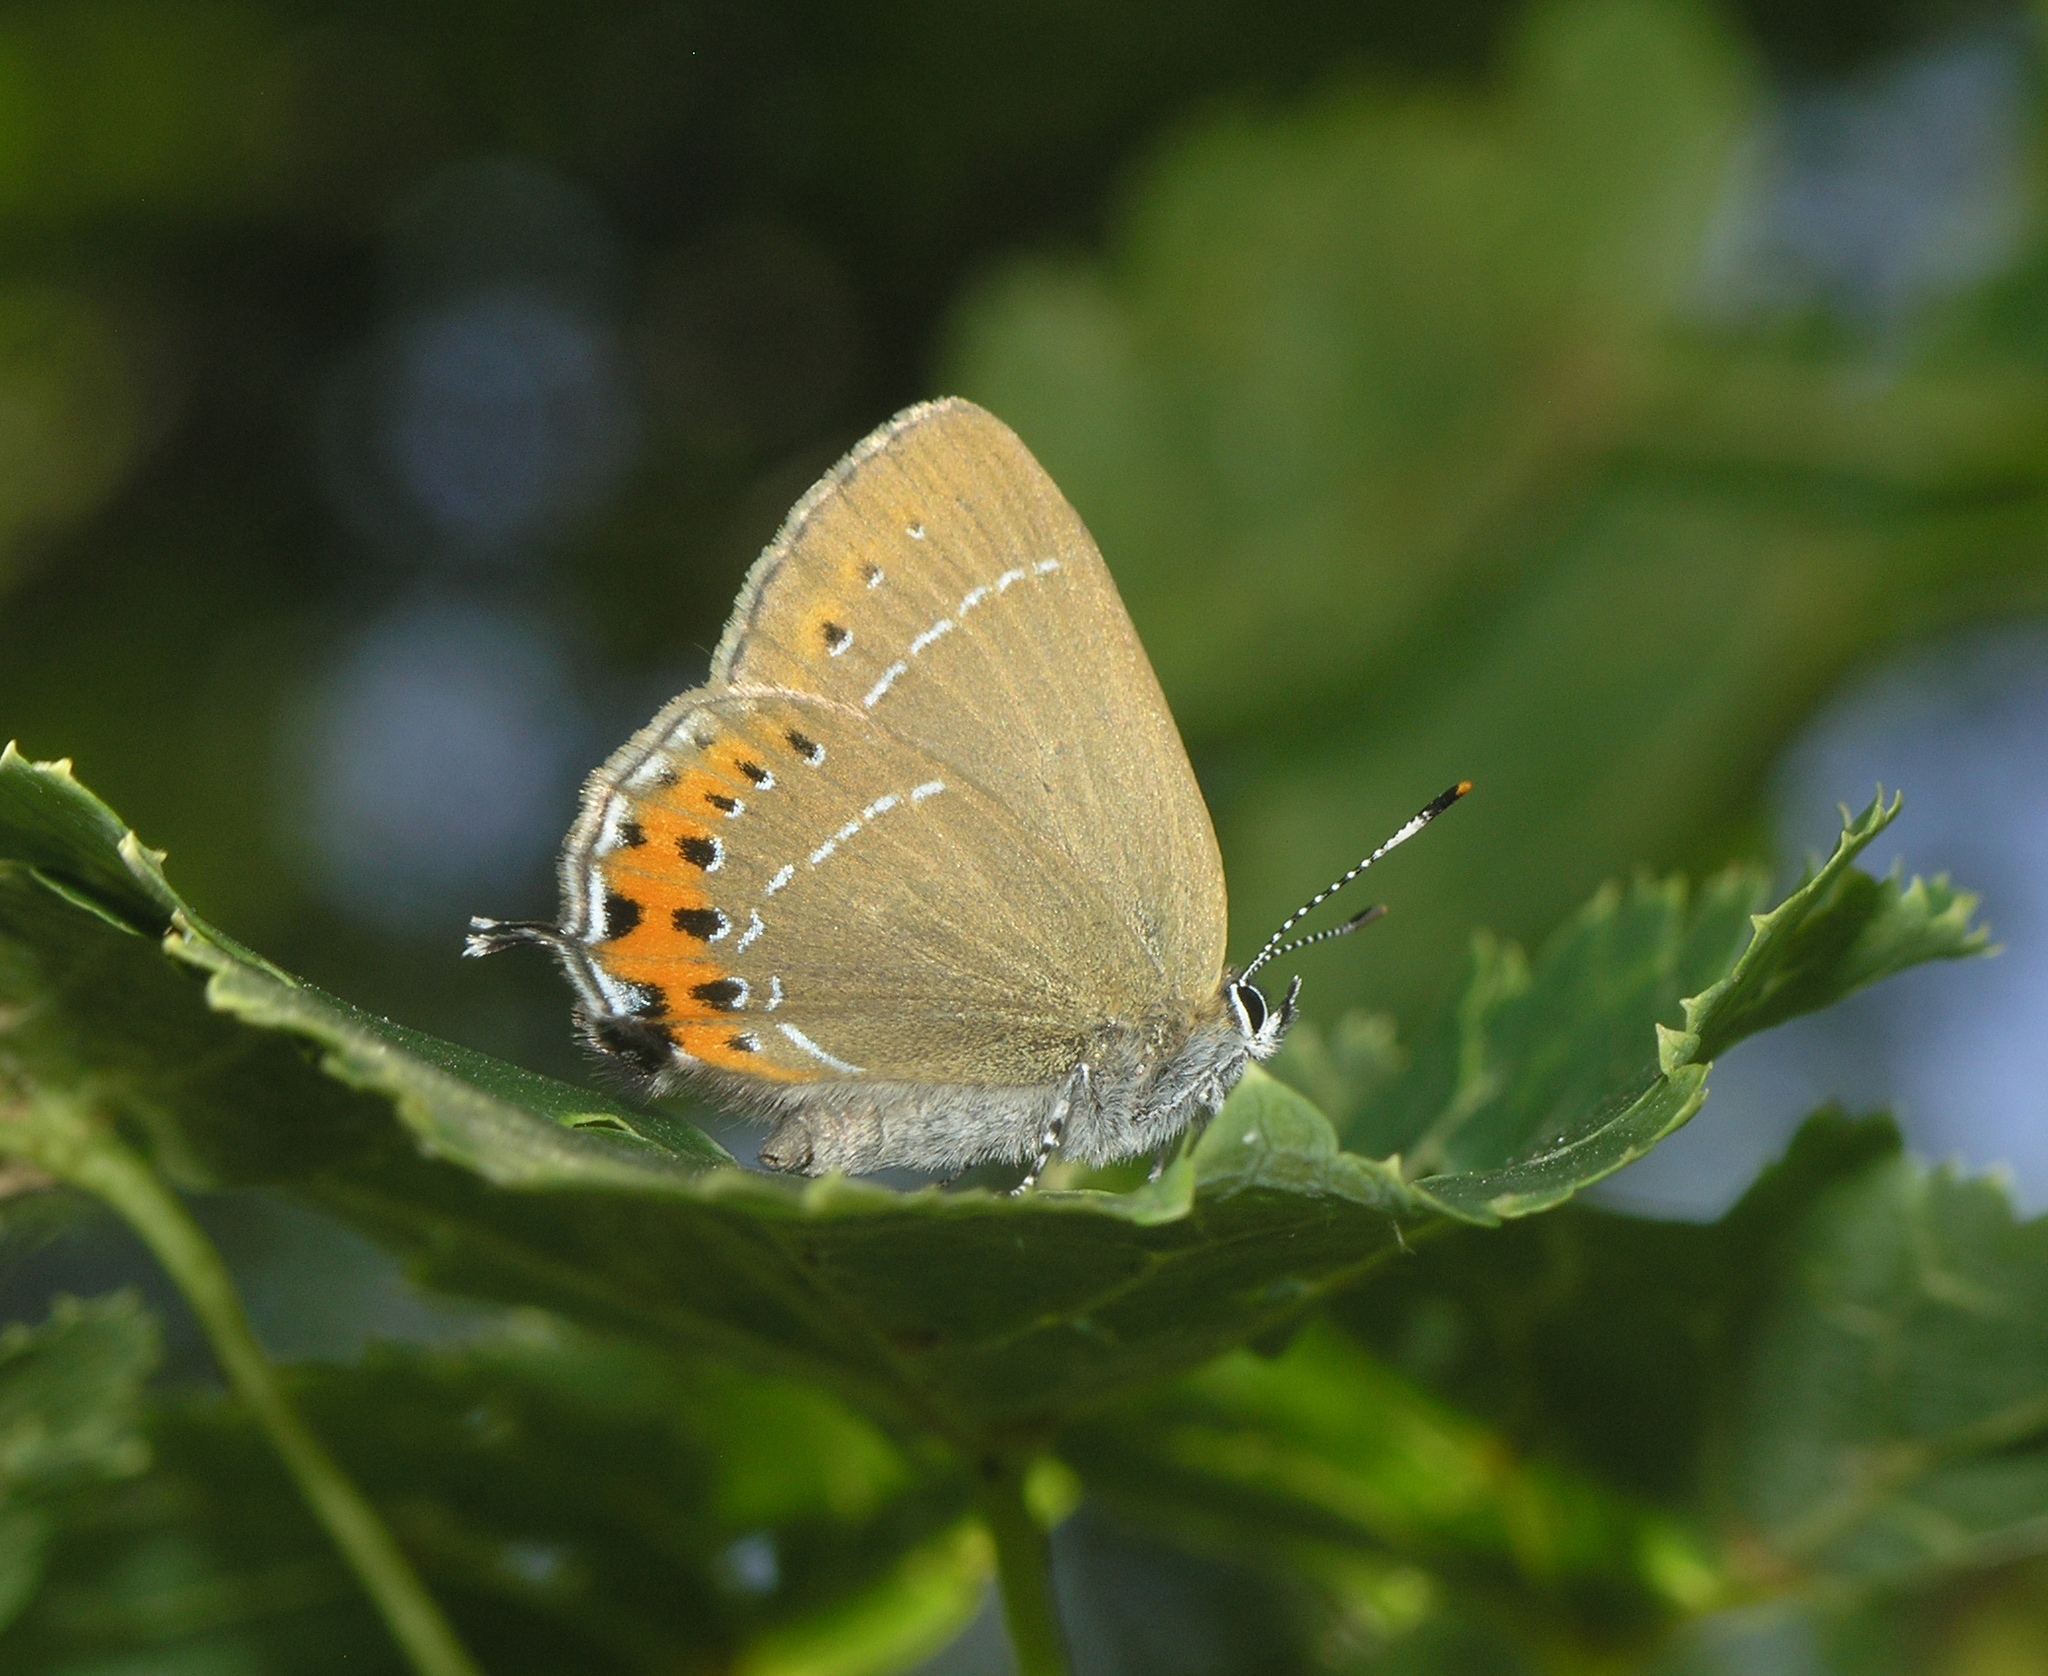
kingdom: Animalia
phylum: Arthropoda
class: Insecta
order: Lepidoptera
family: Lycaenidae
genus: Fixsenia
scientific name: Fixsenia pruni
